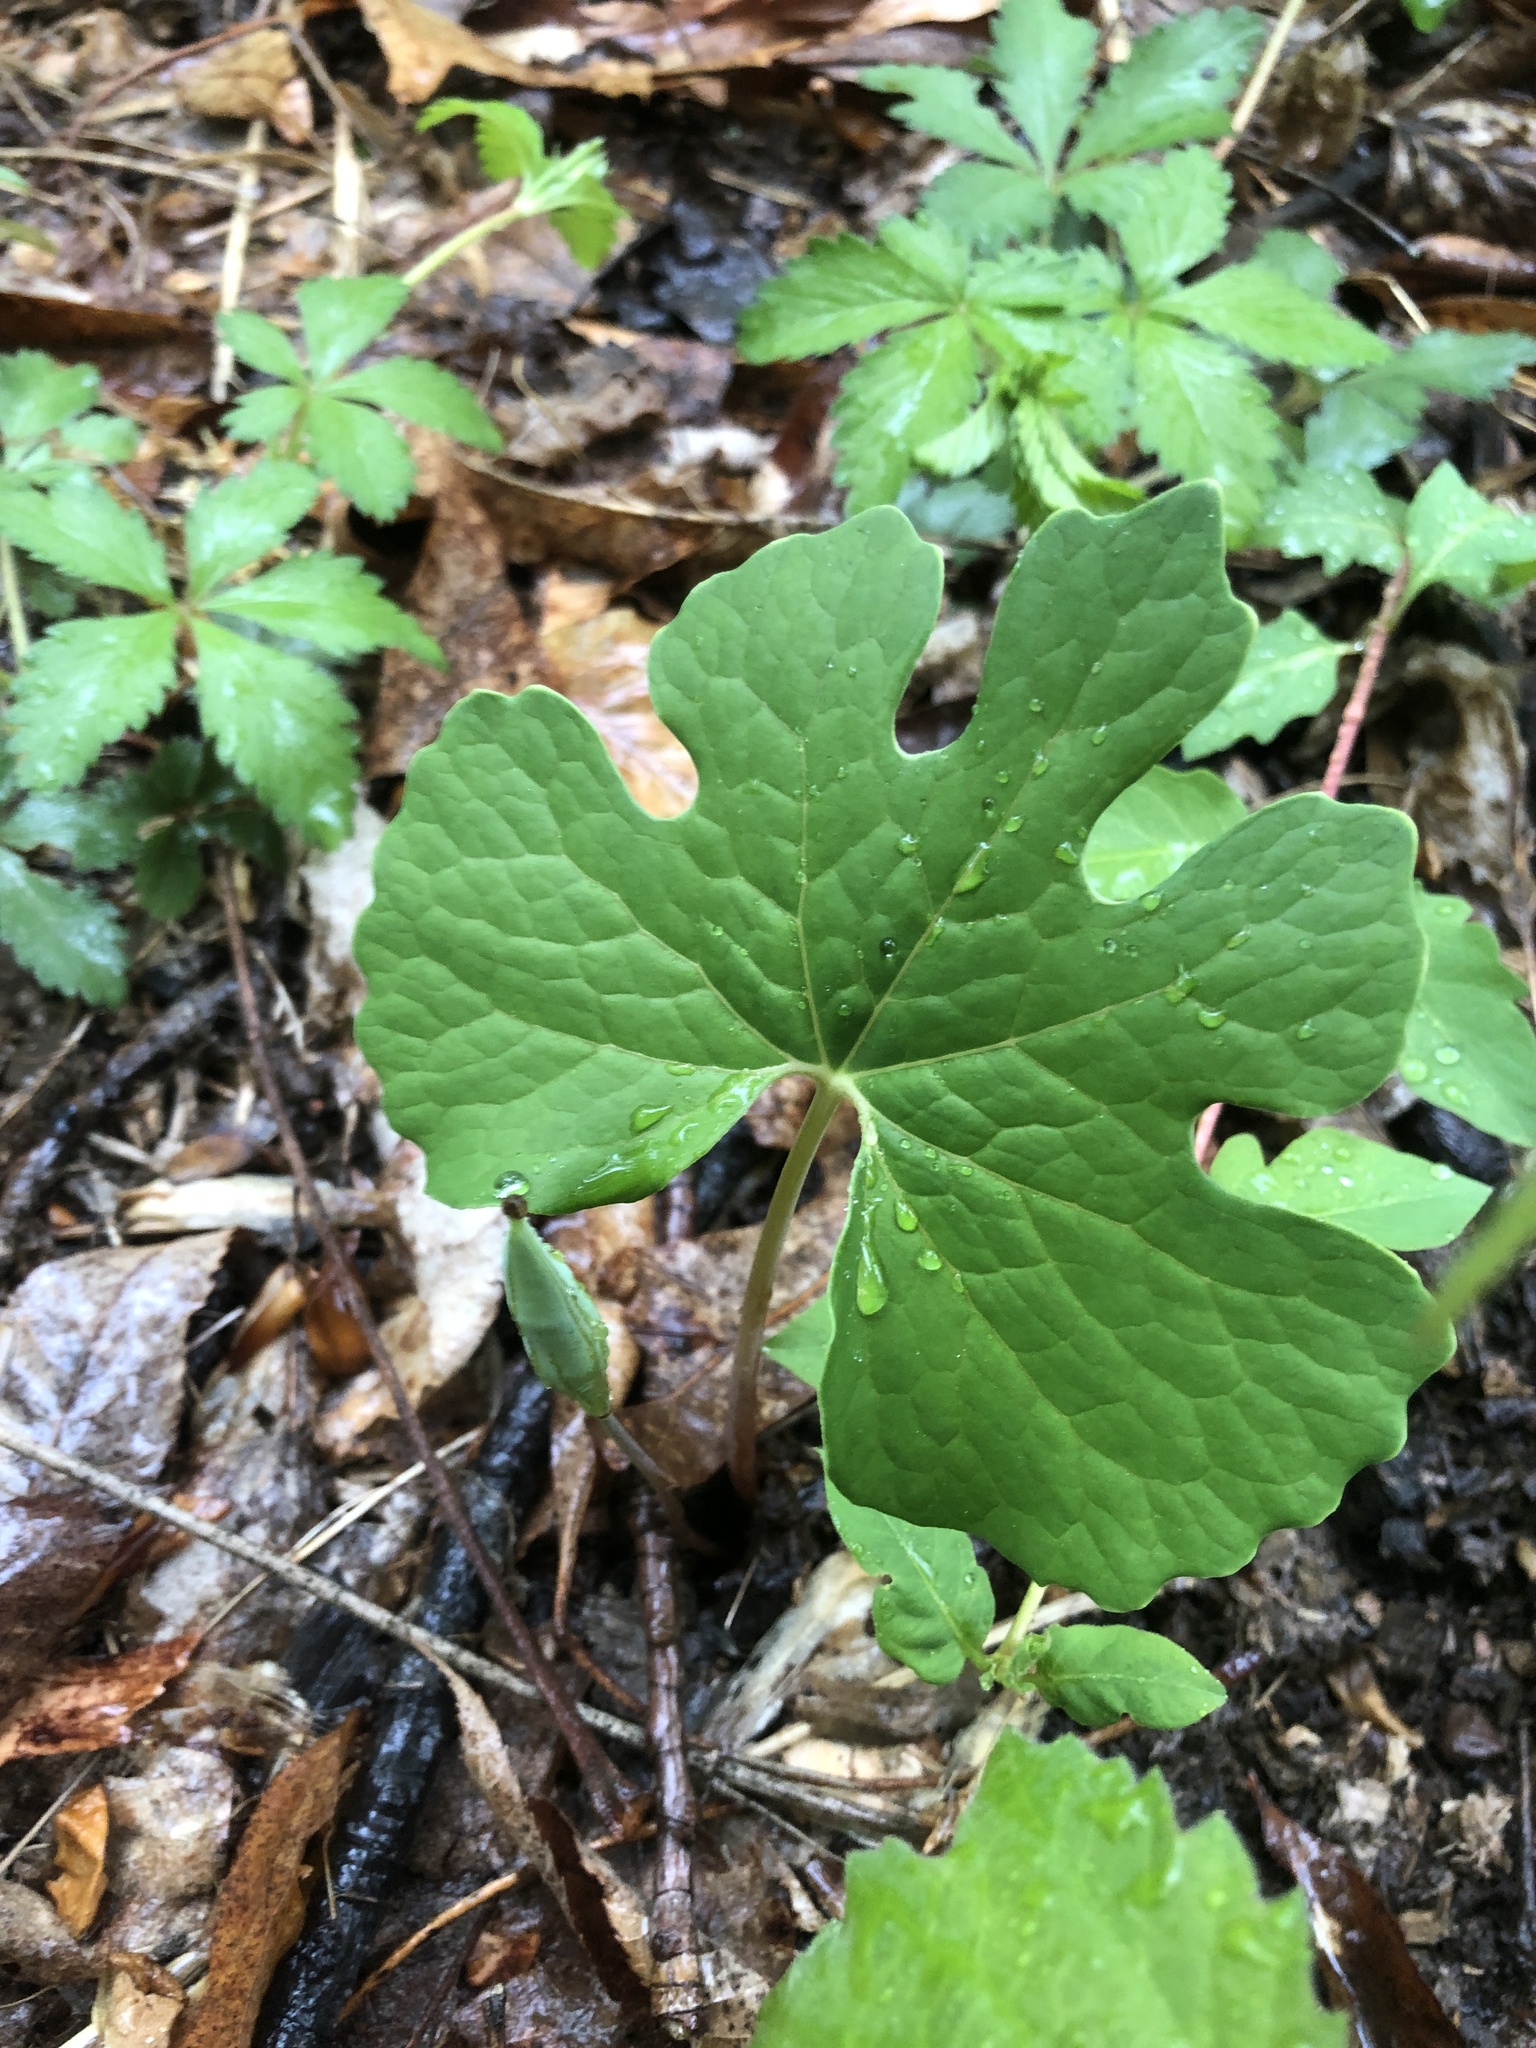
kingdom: Plantae
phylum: Tracheophyta
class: Magnoliopsida
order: Ranunculales
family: Papaveraceae
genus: Sanguinaria
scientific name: Sanguinaria canadensis
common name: Bloodroot
